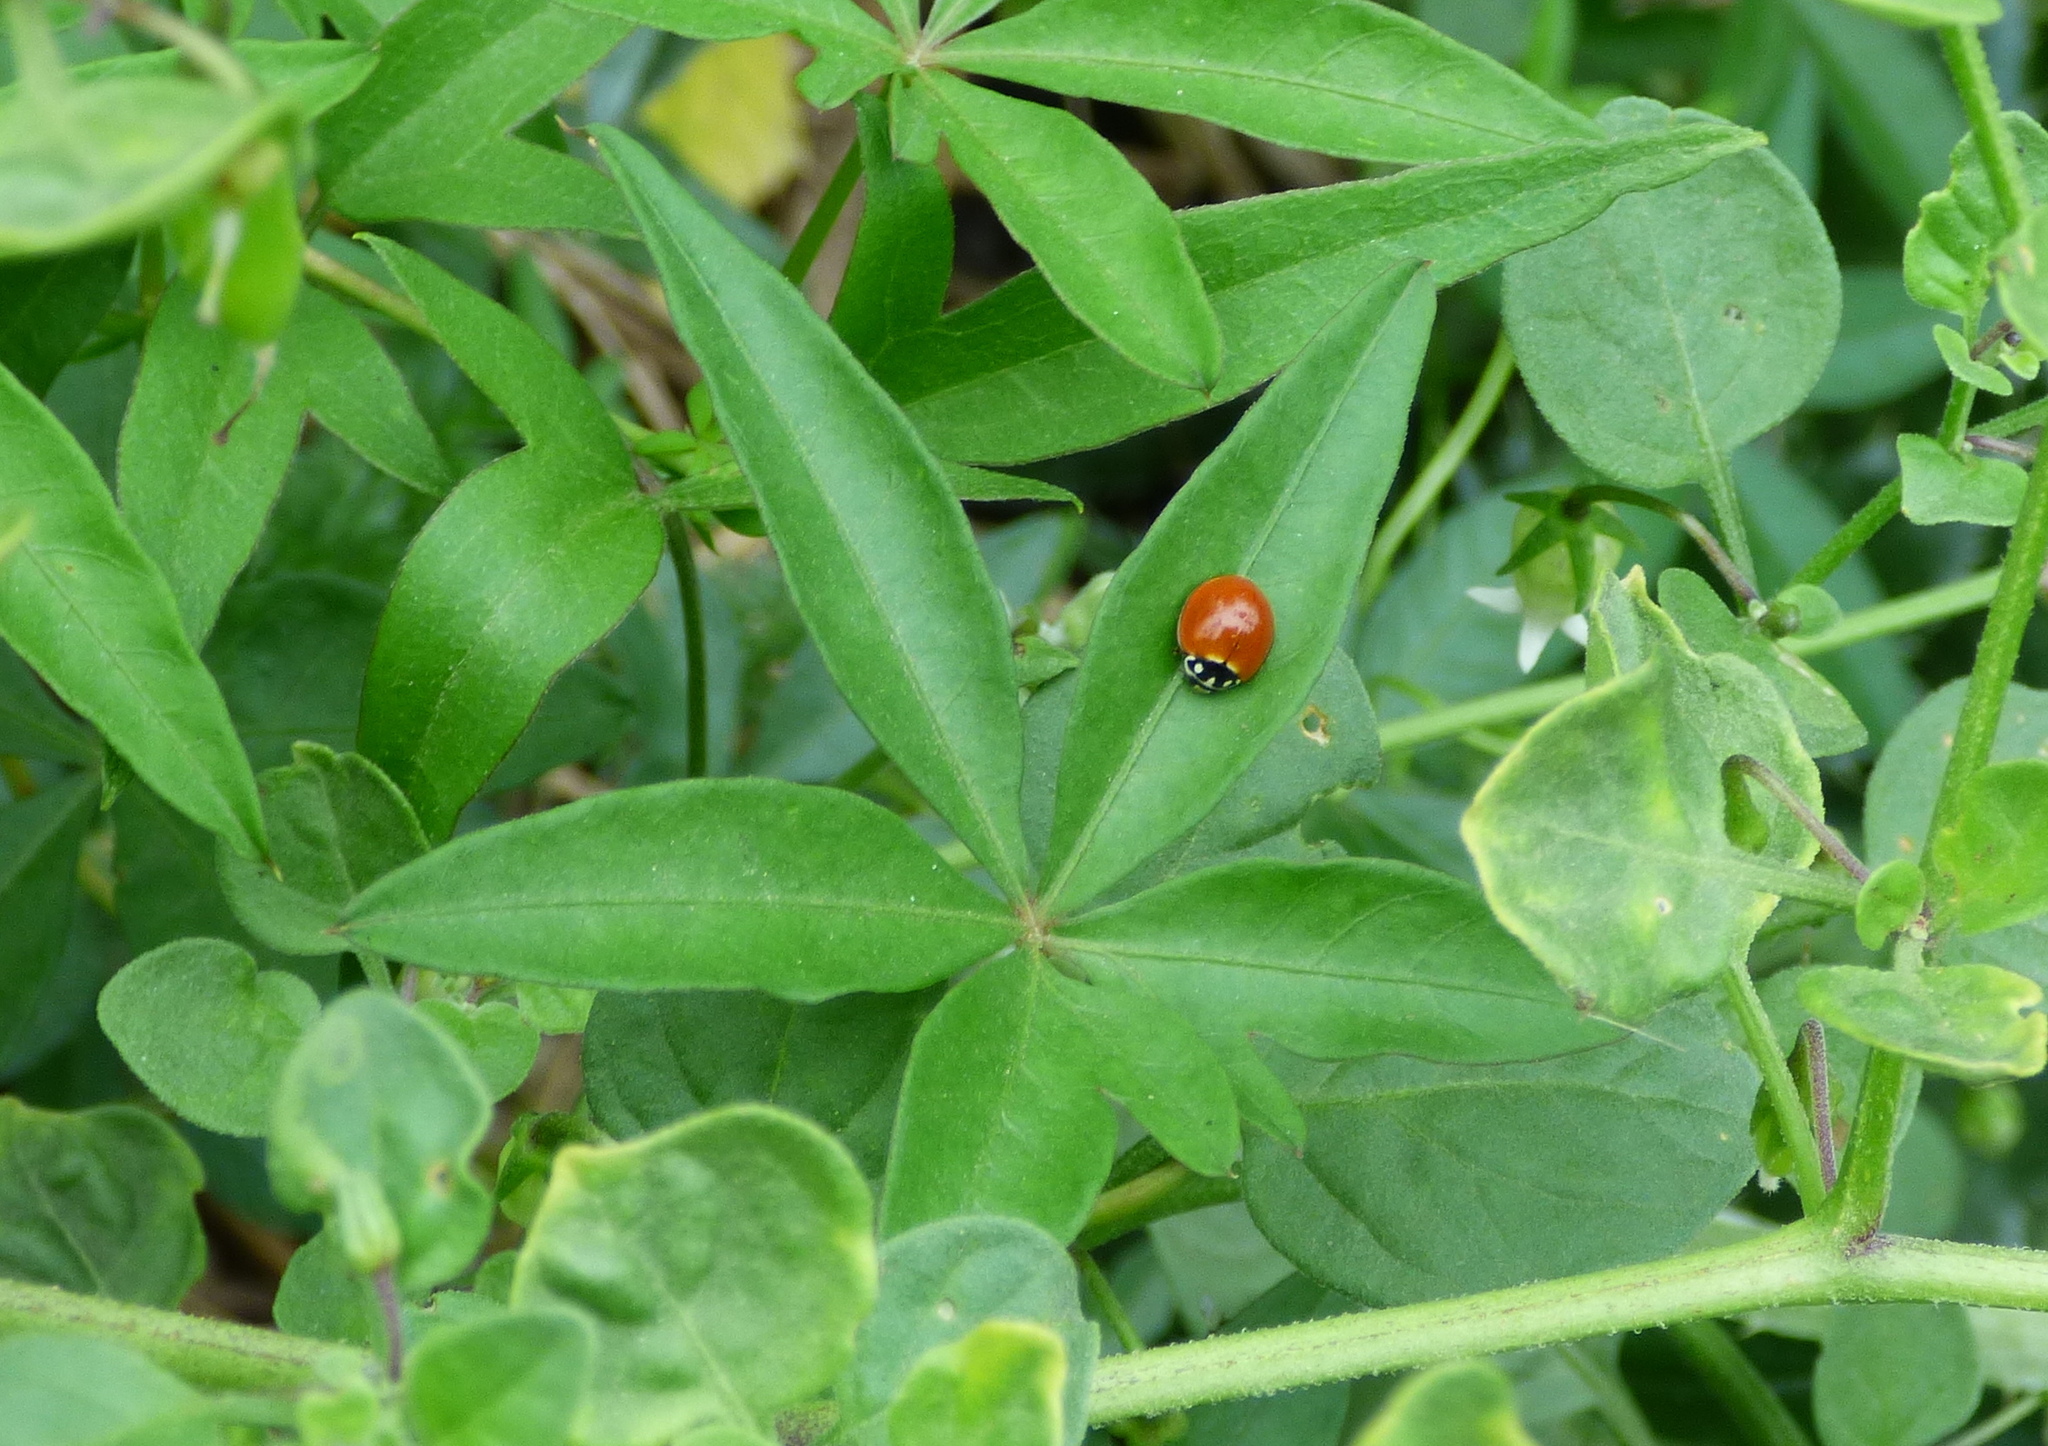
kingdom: Animalia
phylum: Arthropoda
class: Insecta
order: Coleoptera
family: Coccinellidae
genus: Cycloneda
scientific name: Cycloneda sanguinea
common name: Ladybird beetle
